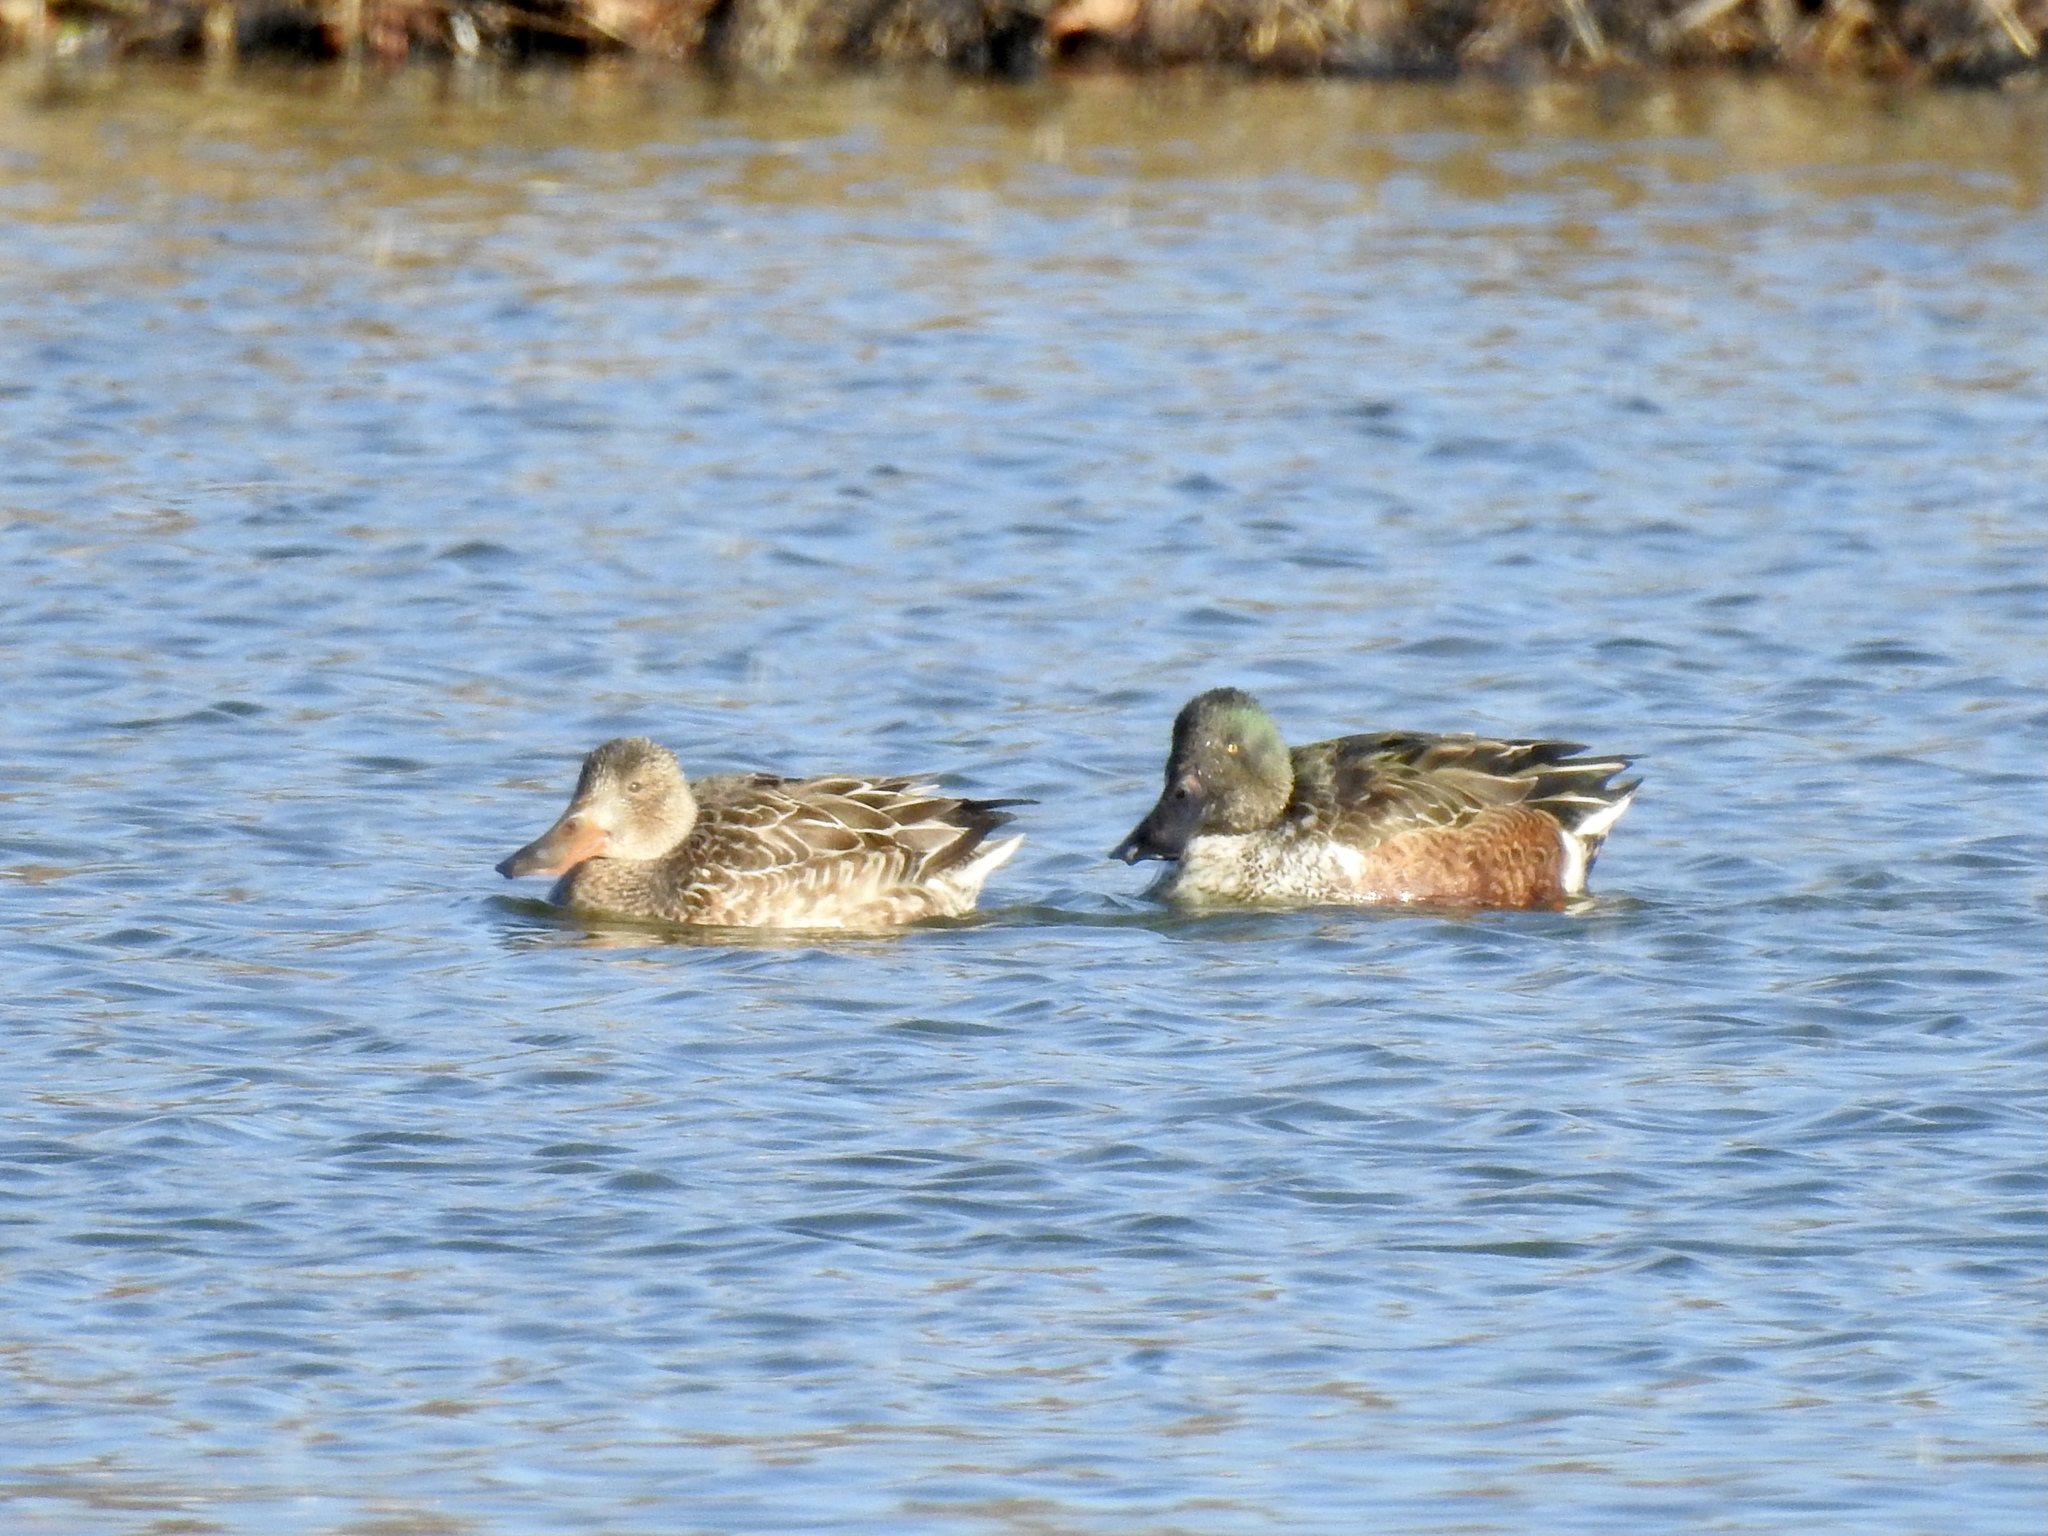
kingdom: Animalia
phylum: Chordata
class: Aves
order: Anseriformes
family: Anatidae
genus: Spatula
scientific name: Spatula clypeata
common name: Northern shoveler
